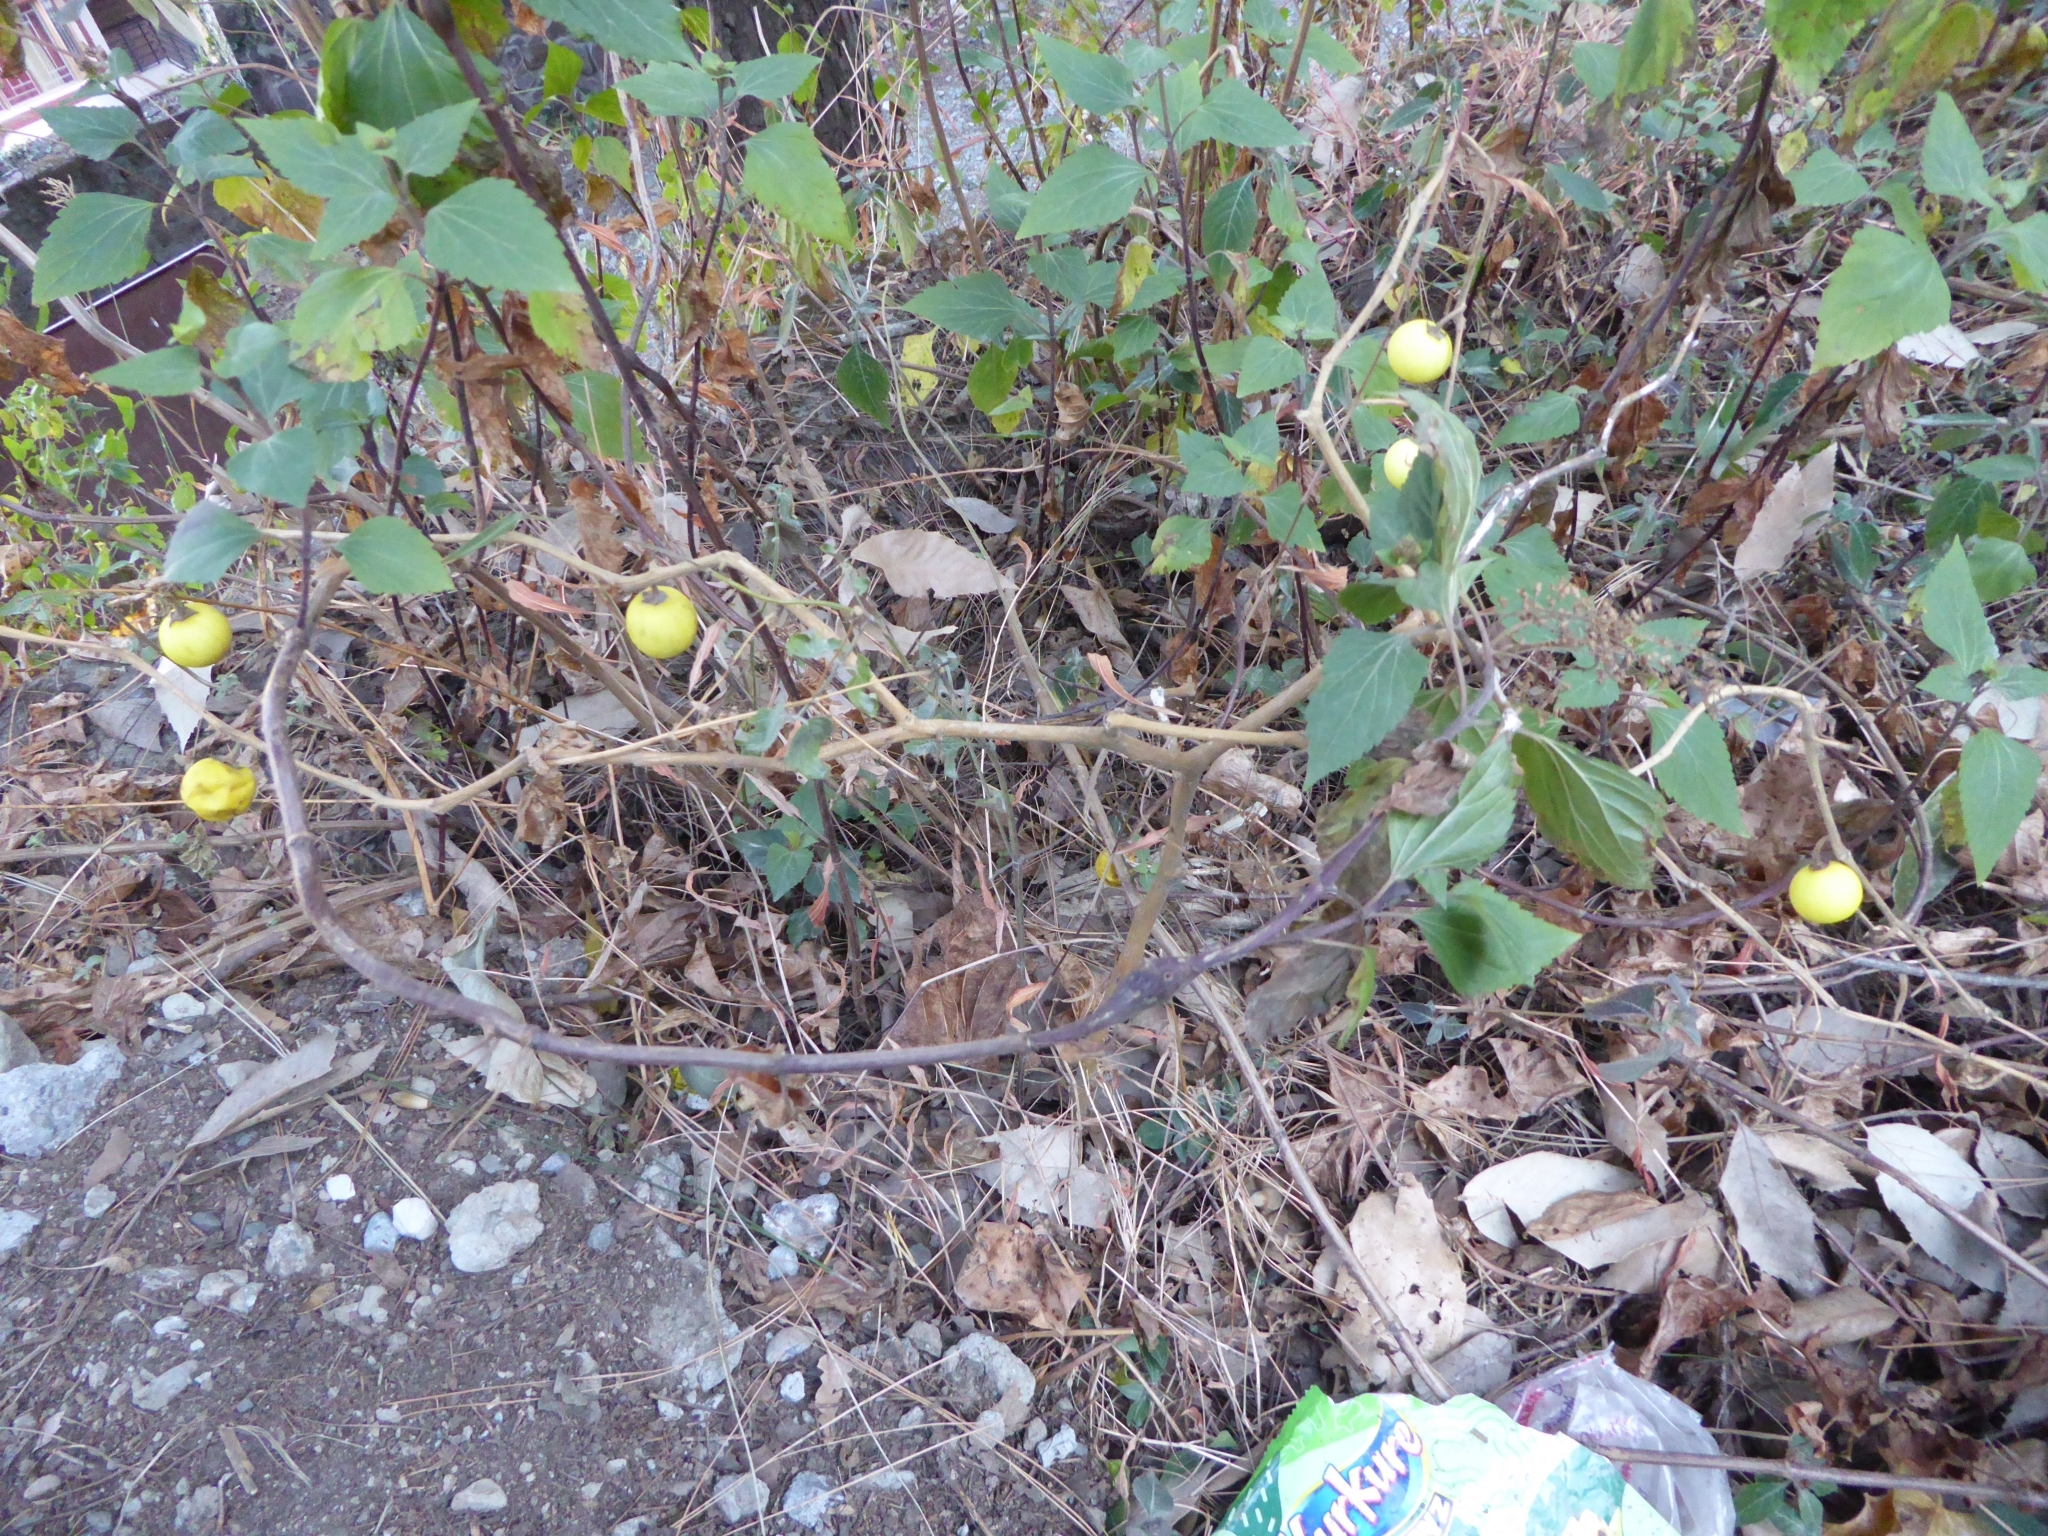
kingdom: Plantae
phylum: Tracheophyta
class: Magnoliopsida
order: Solanales
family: Solanaceae
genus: Solanum
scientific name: Solanum viarum
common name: Tropical soda apple
